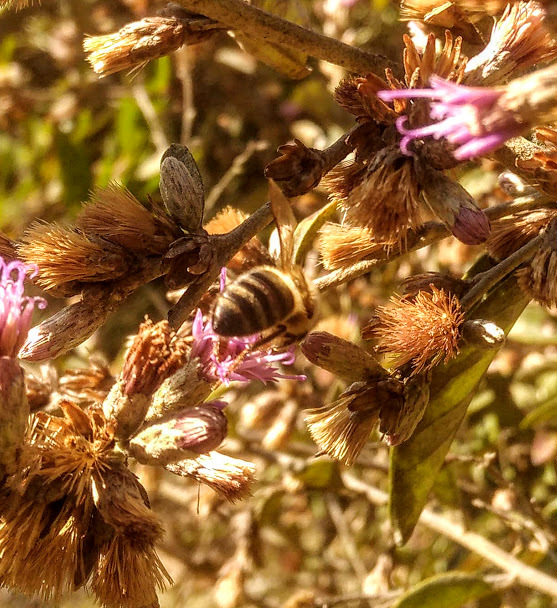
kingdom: Animalia
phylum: Arthropoda
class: Insecta
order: Hymenoptera
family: Apidae
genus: Apis
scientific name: Apis mellifera
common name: Honey bee
